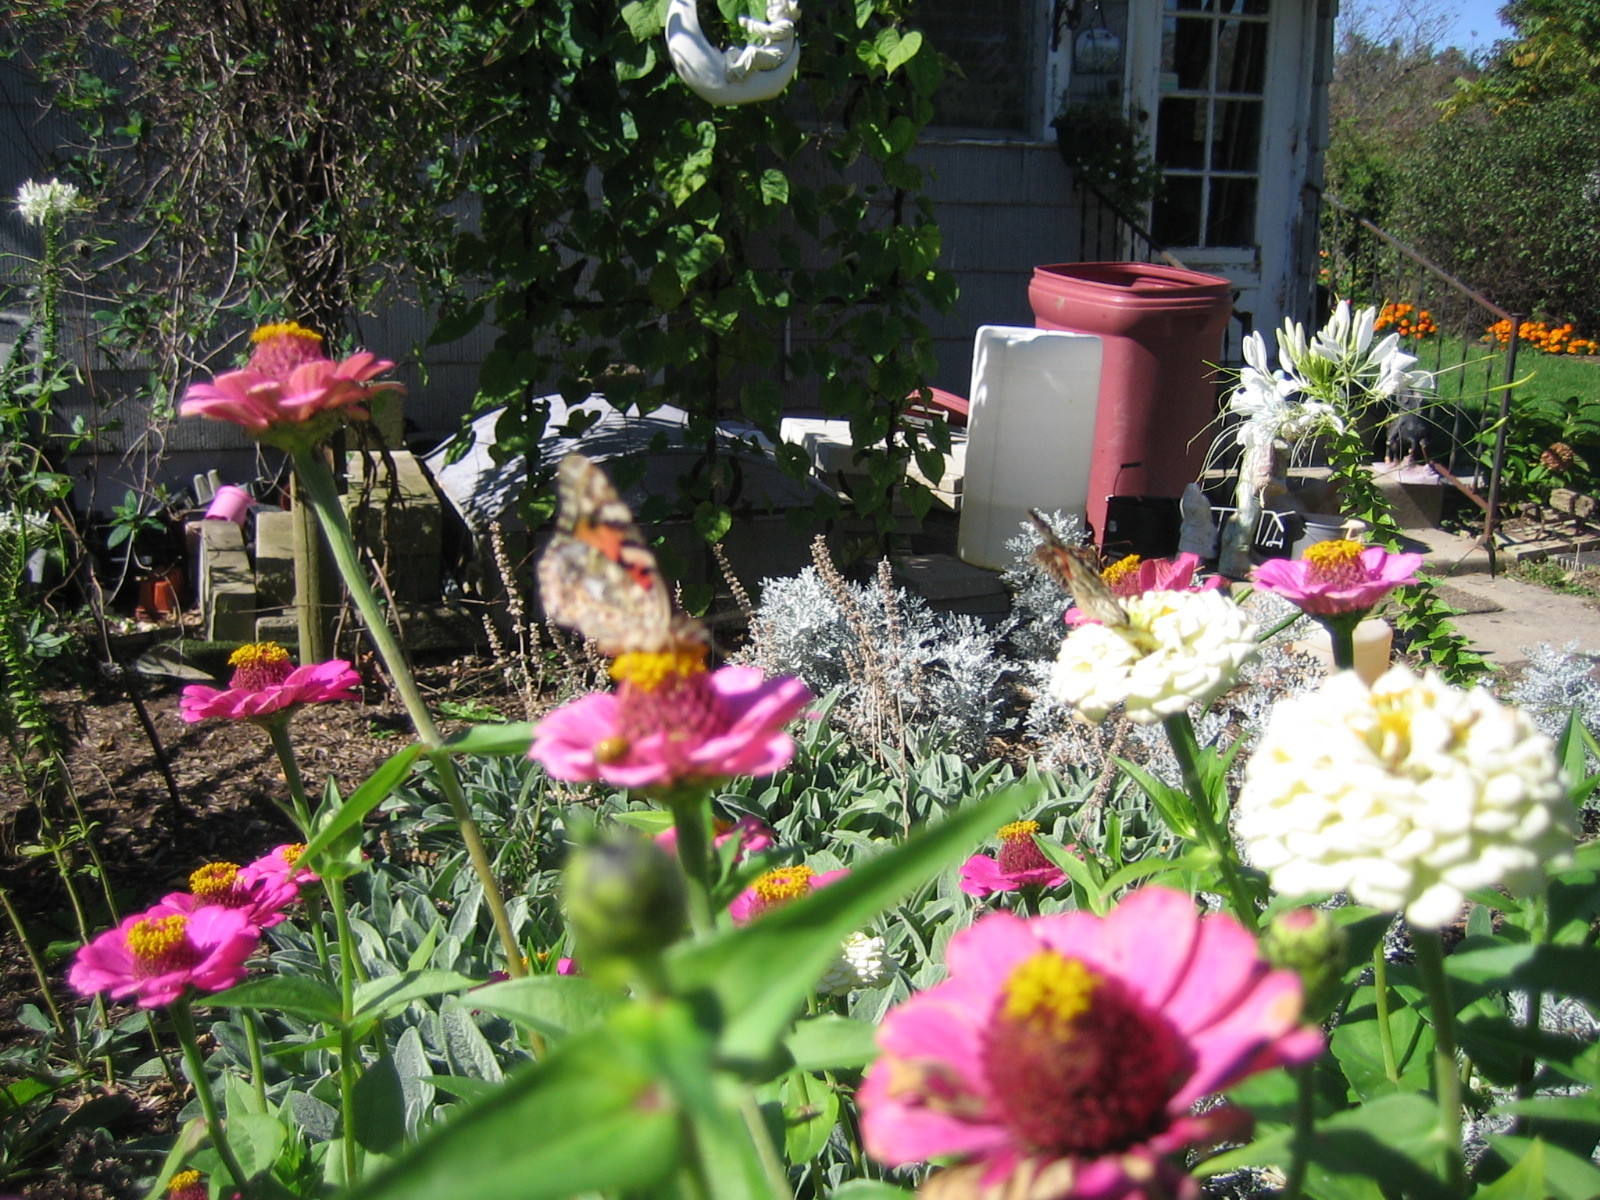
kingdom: Animalia
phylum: Arthropoda
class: Insecta
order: Lepidoptera
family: Nymphalidae
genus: Vanessa
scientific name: Vanessa cardui
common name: Painted lady
